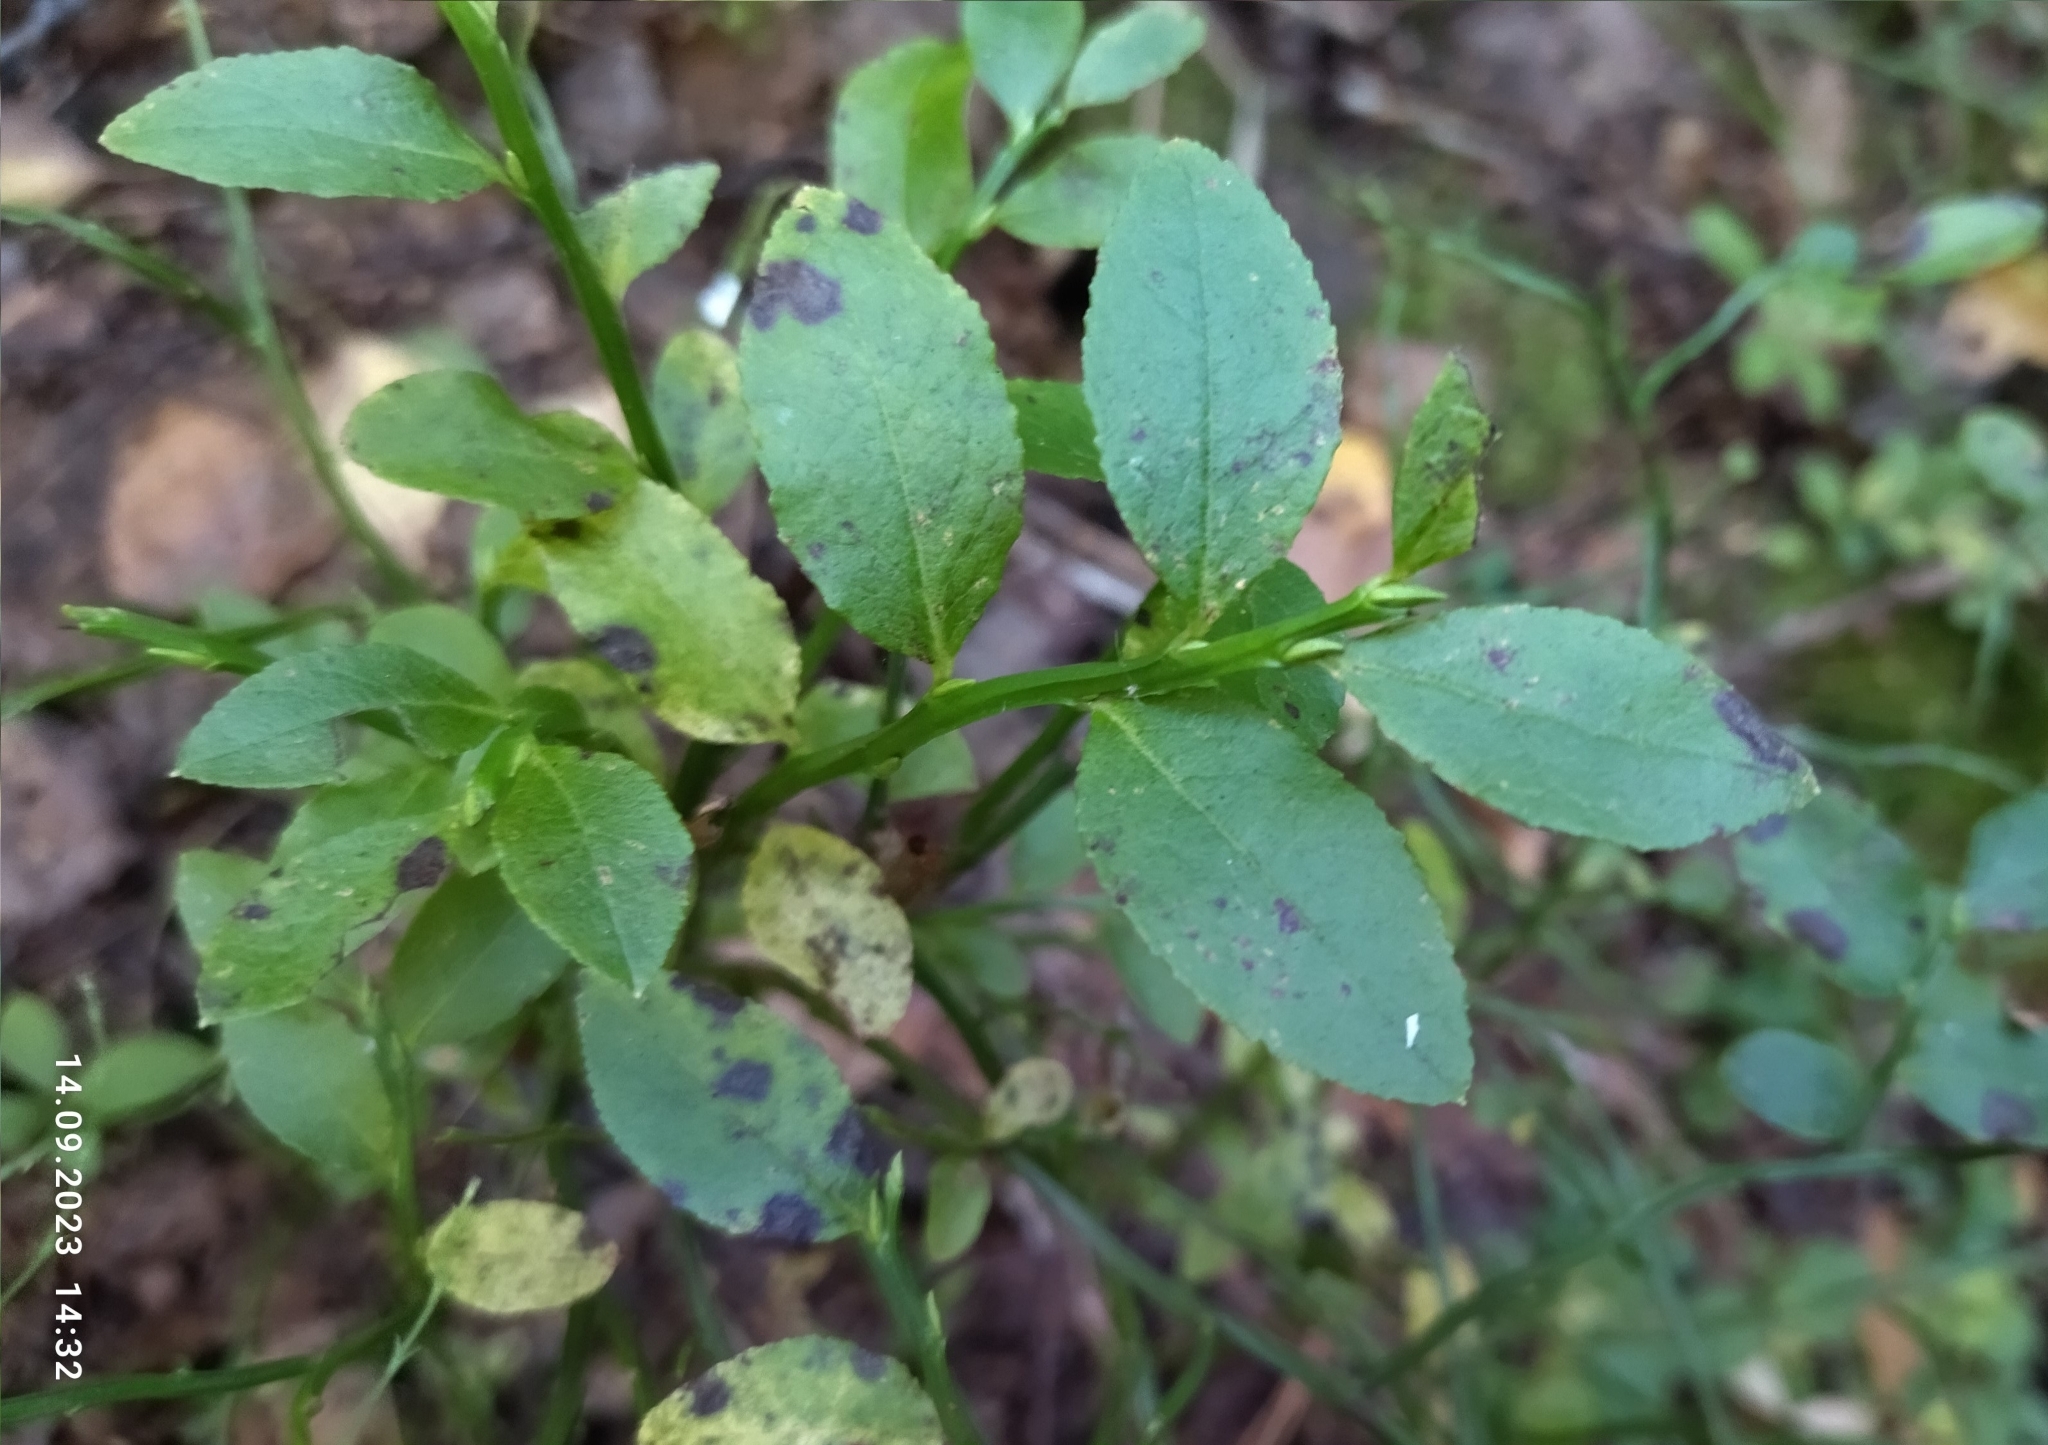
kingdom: Plantae
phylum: Tracheophyta
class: Magnoliopsida
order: Ericales
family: Ericaceae
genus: Vaccinium
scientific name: Vaccinium myrtillus
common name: Bilberry
